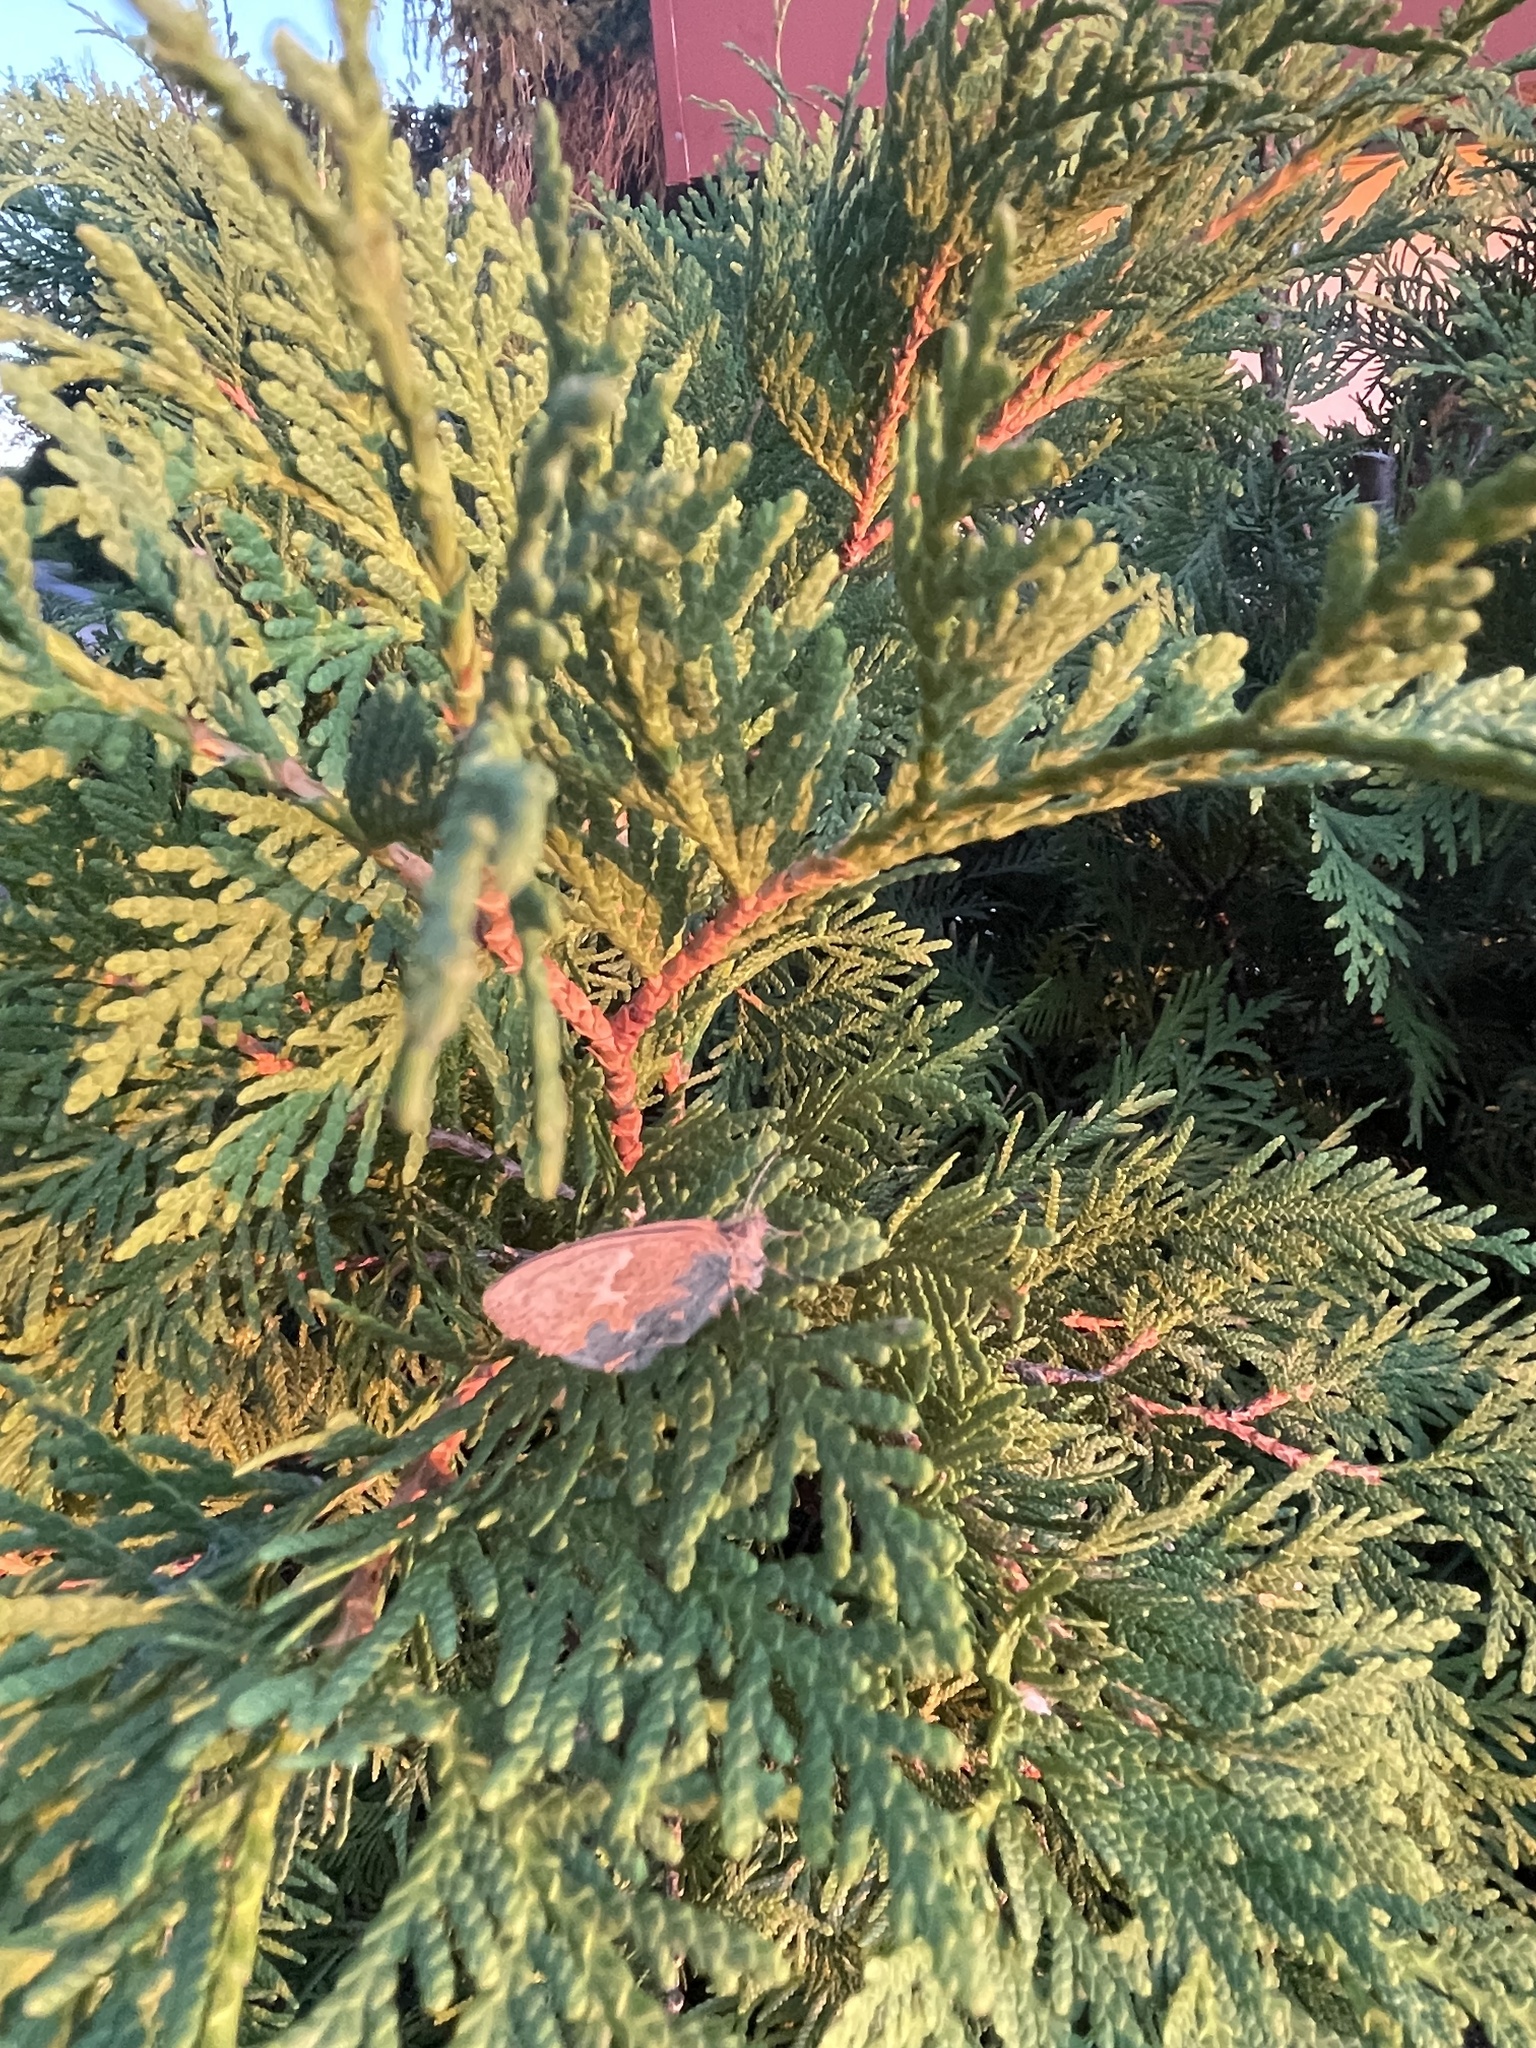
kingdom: Animalia
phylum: Arthropoda
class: Insecta
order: Lepidoptera
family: Nymphalidae
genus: Coenonympha
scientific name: Coenonympha california
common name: Common ringlet
